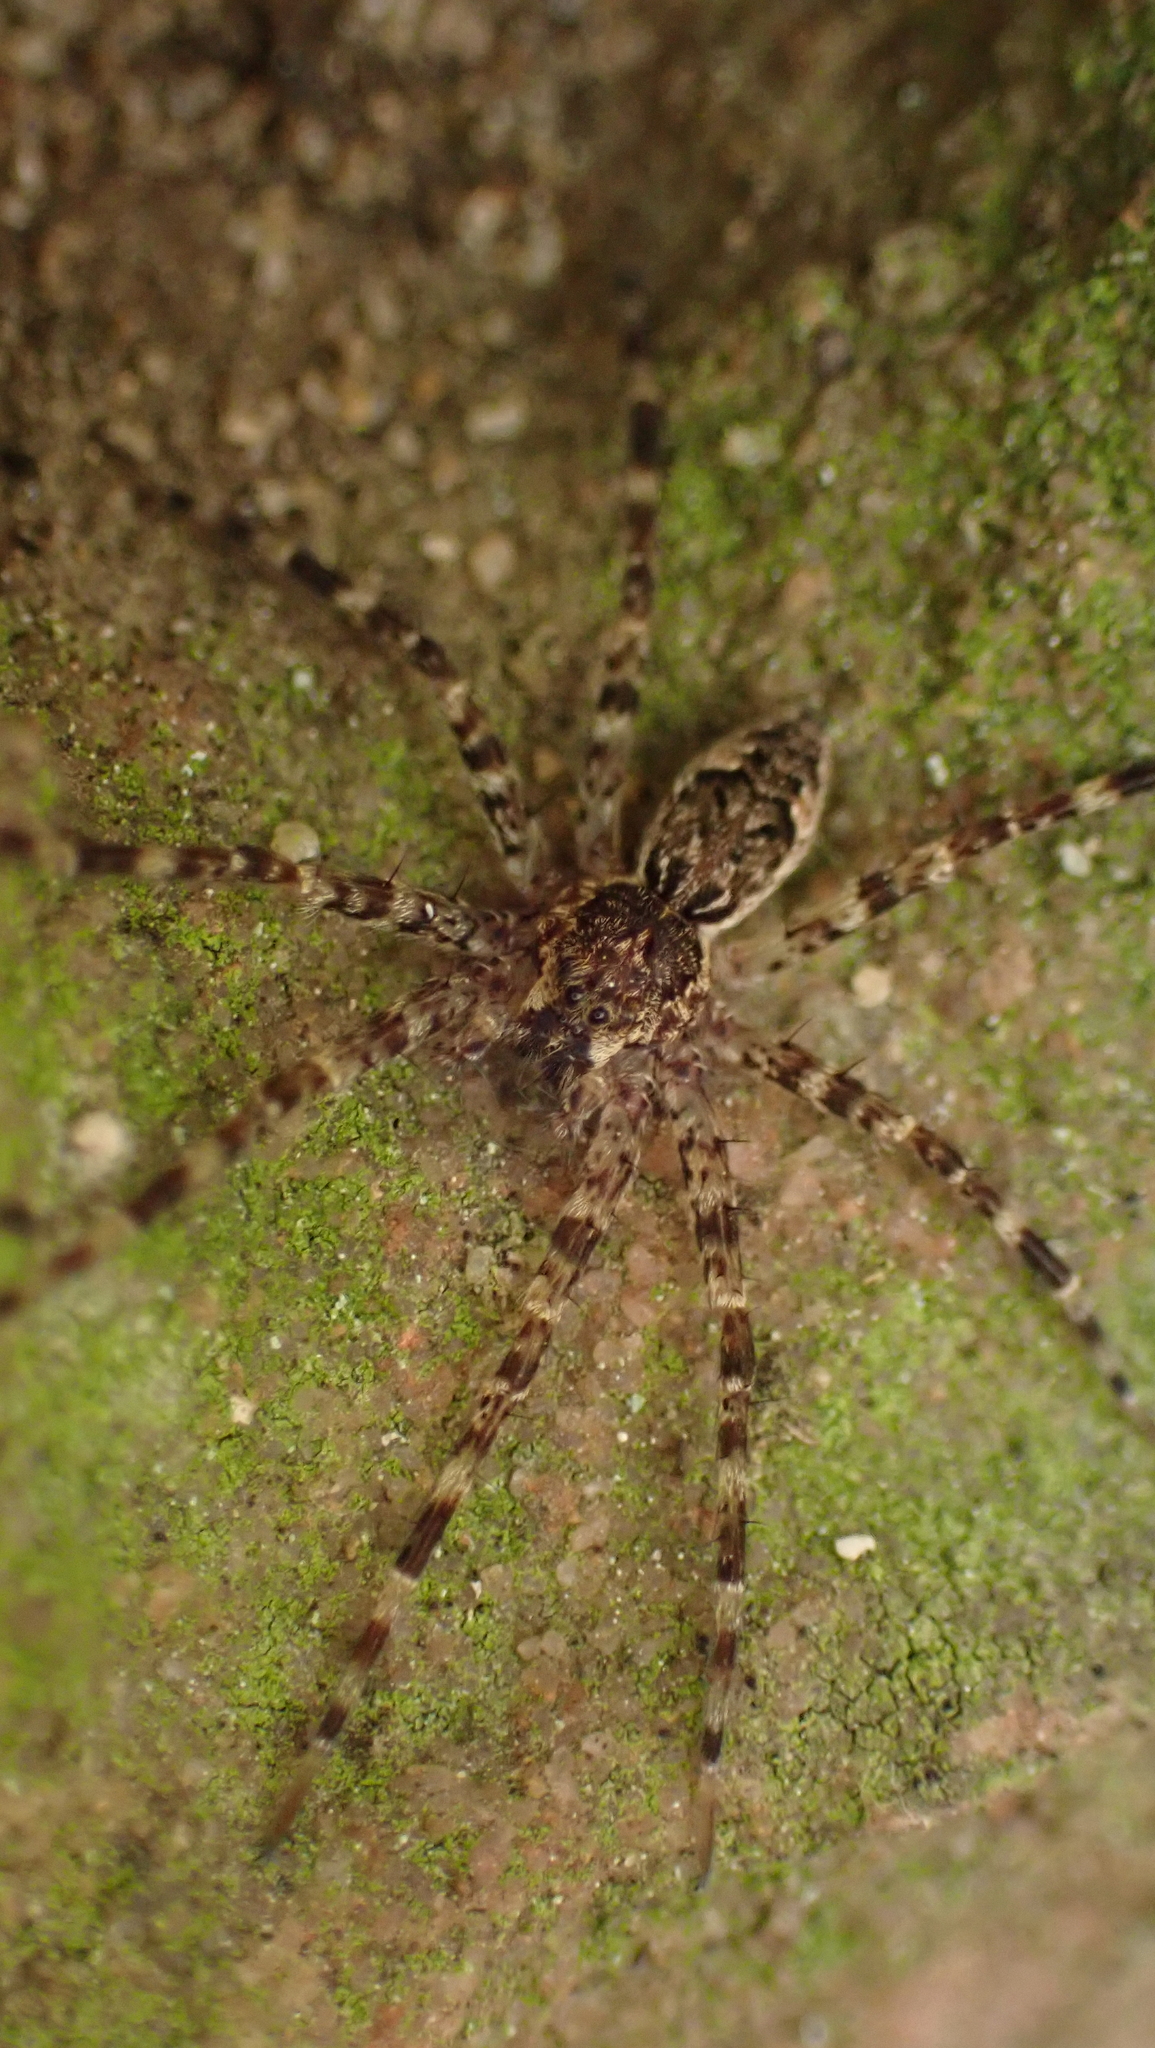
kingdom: Animalia
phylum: Arthropoda
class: Arachnida
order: Araneae
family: Pisauridae
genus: Dolomedes
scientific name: Dolomedes tenebrosus
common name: Dark fishing spider
